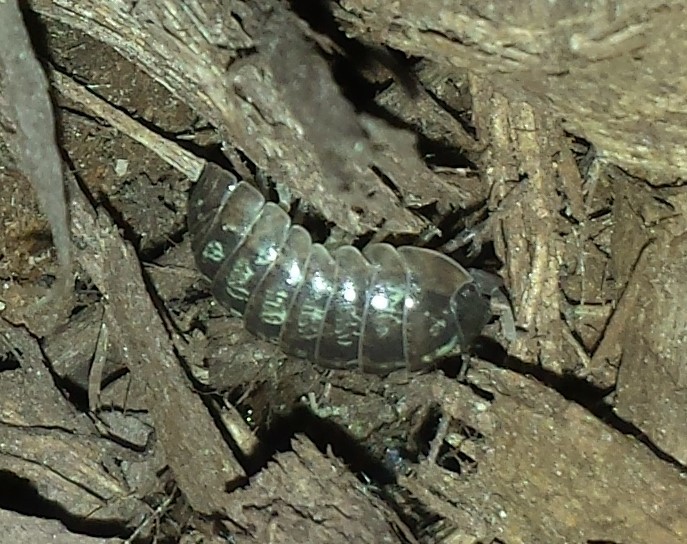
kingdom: Animalia
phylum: Arthropoda
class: Malacostraca
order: Isopoda
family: Armadillidiidae
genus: Armadillidium
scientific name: Armadillidium vulgare
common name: Common pill woodlouse
